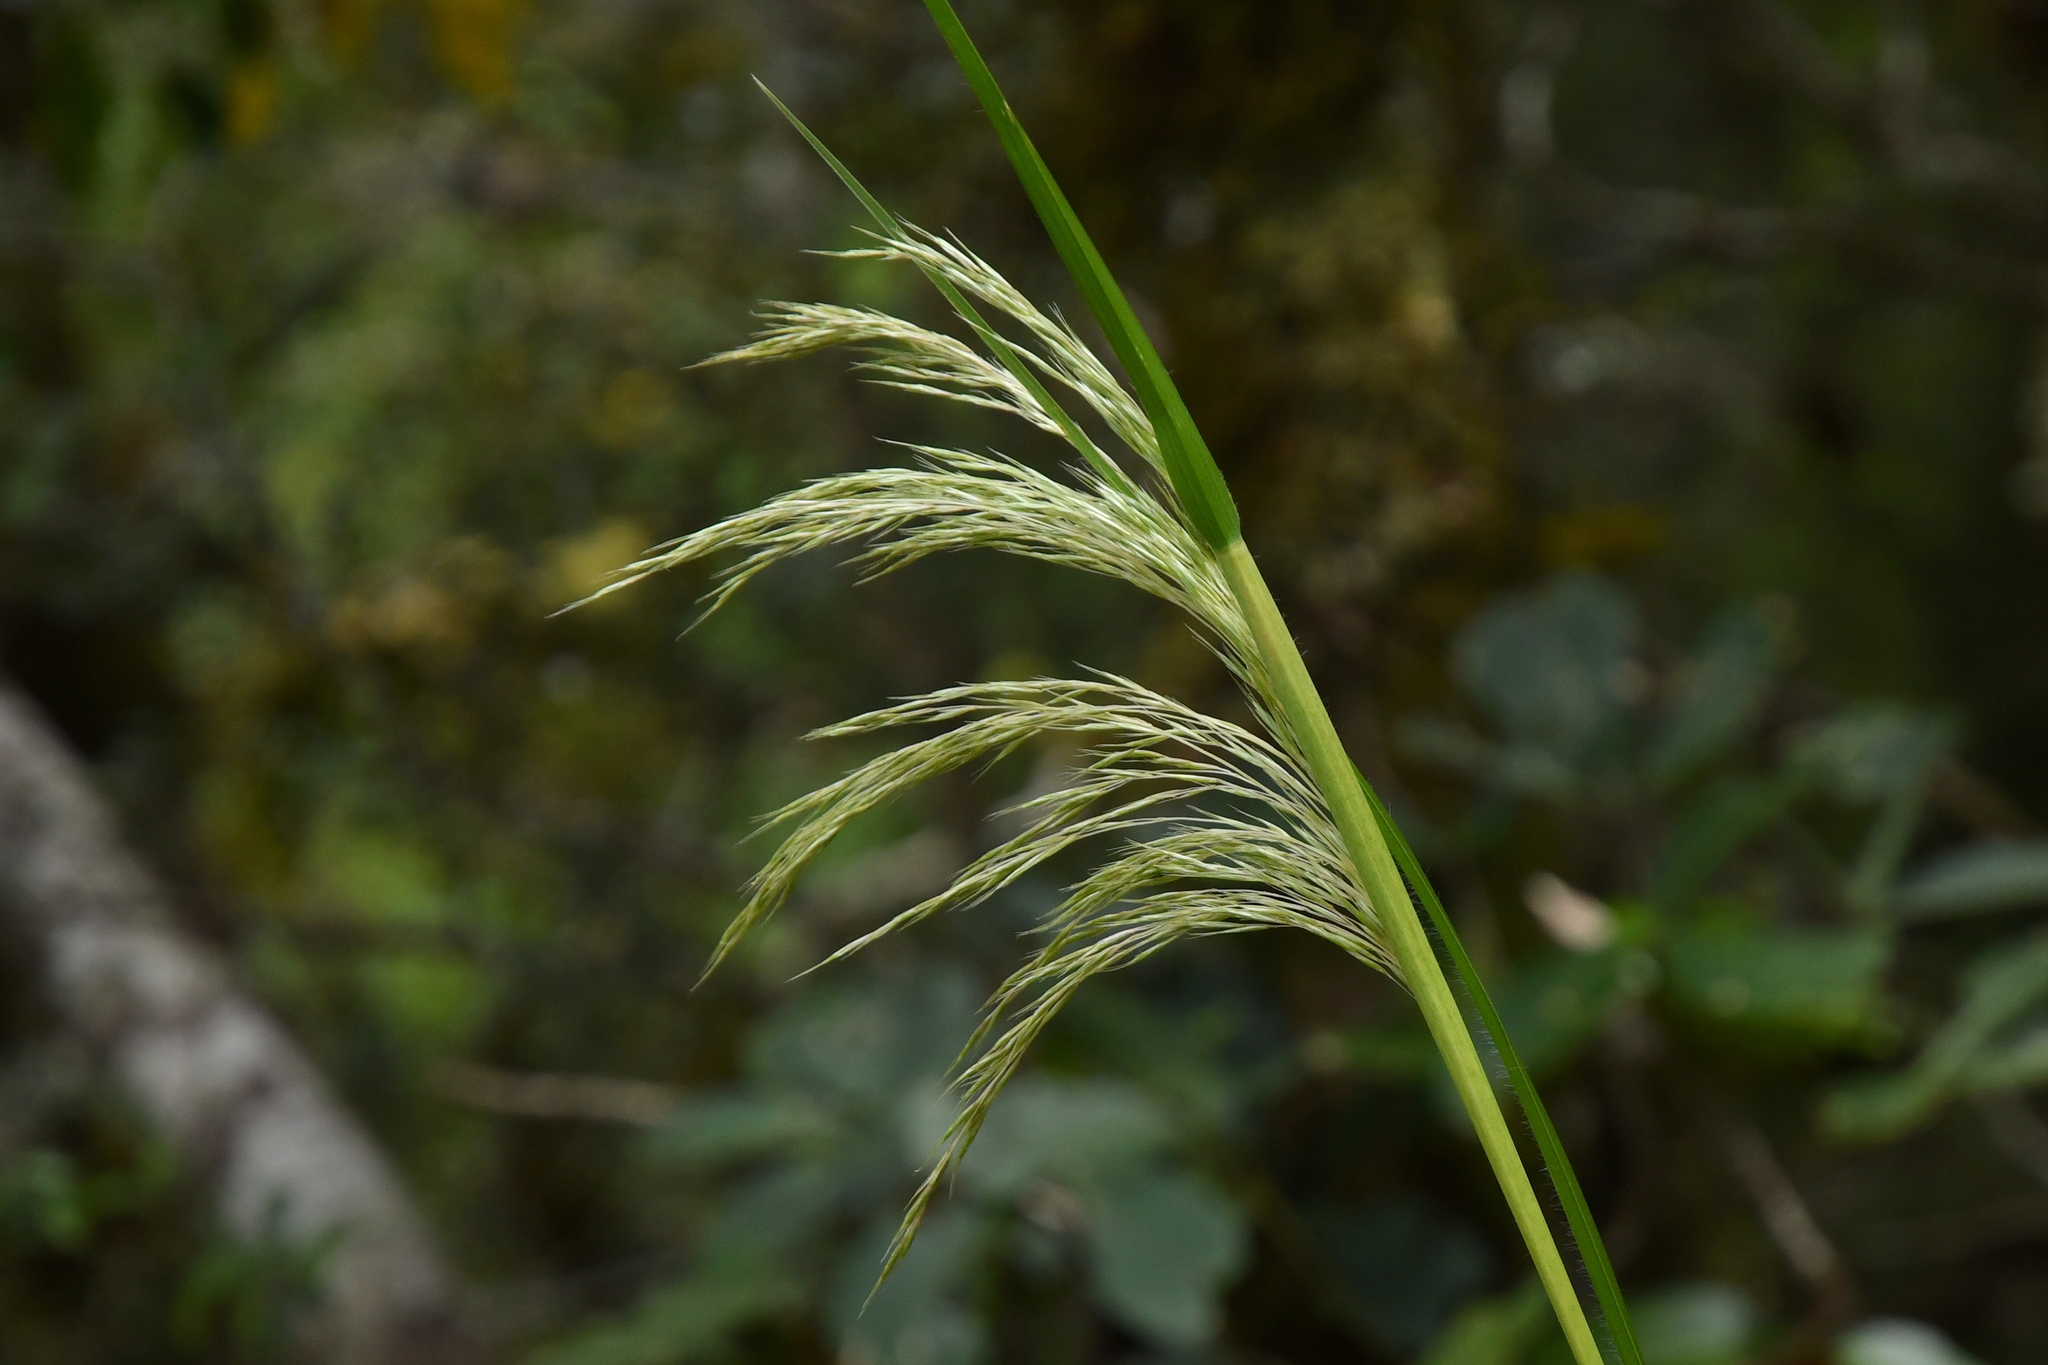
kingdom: Plantae
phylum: Tracheophyta
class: Liliopsida
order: Poales
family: Poaceae
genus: Austroderia
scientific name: Austroderia richardii
